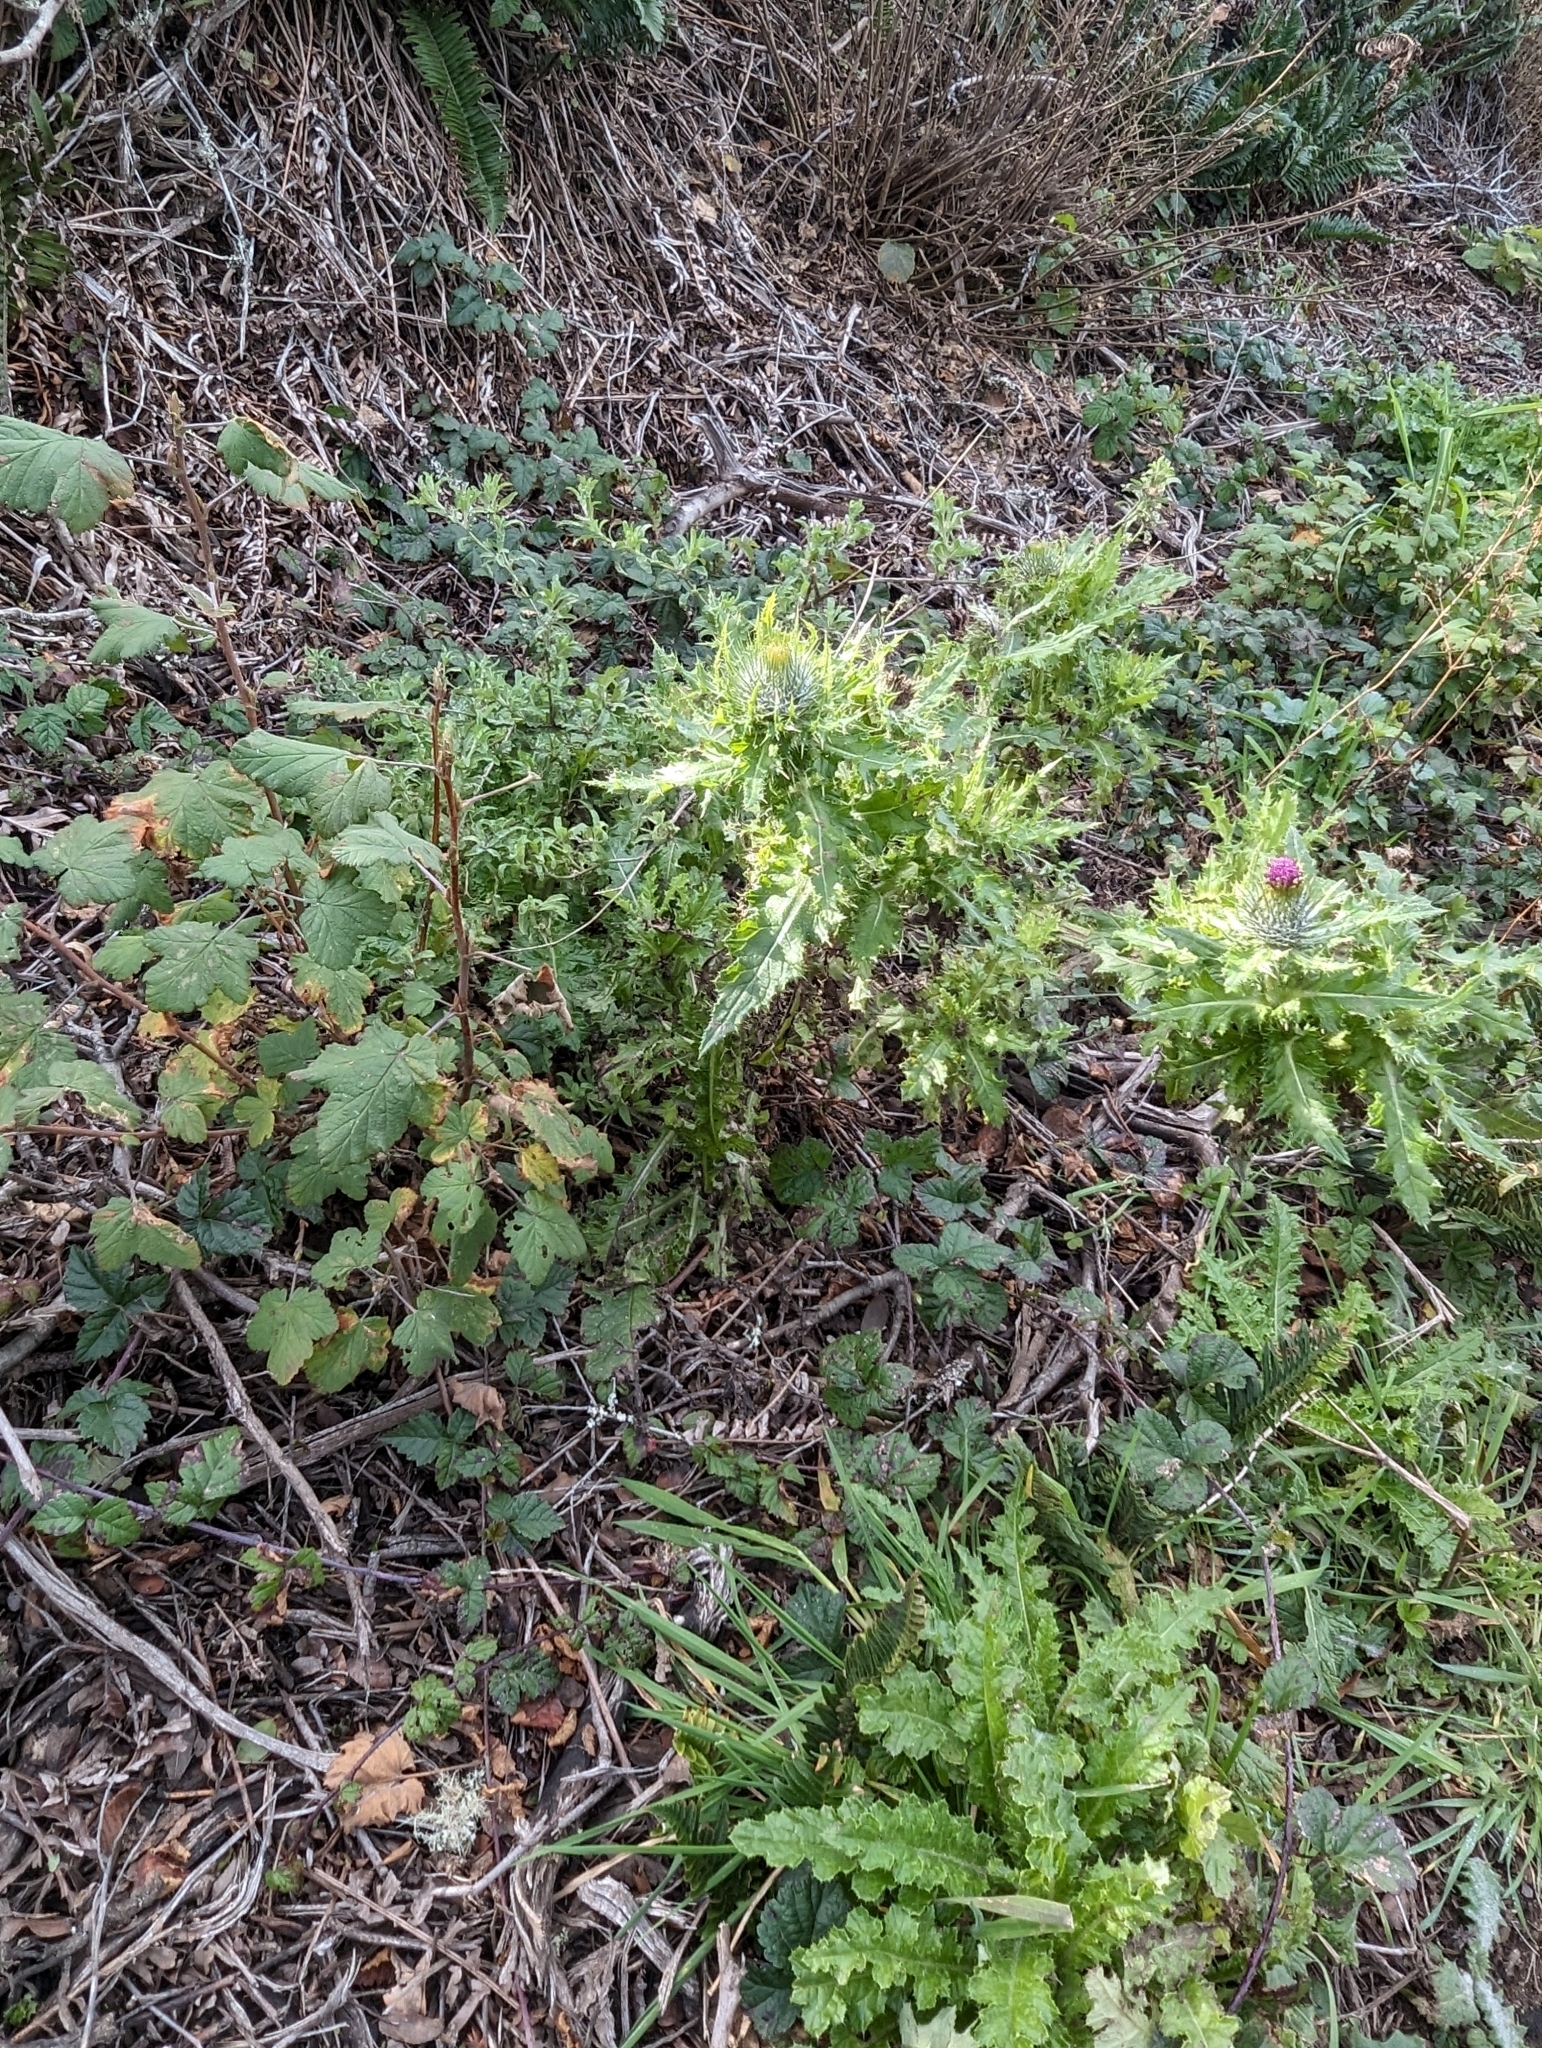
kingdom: Plantae
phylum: Tracheophyta
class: Magnoliopsida
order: Asterales
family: Asteraceae
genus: Cirsium
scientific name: Cirsium brevistylum
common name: Indian thistle
